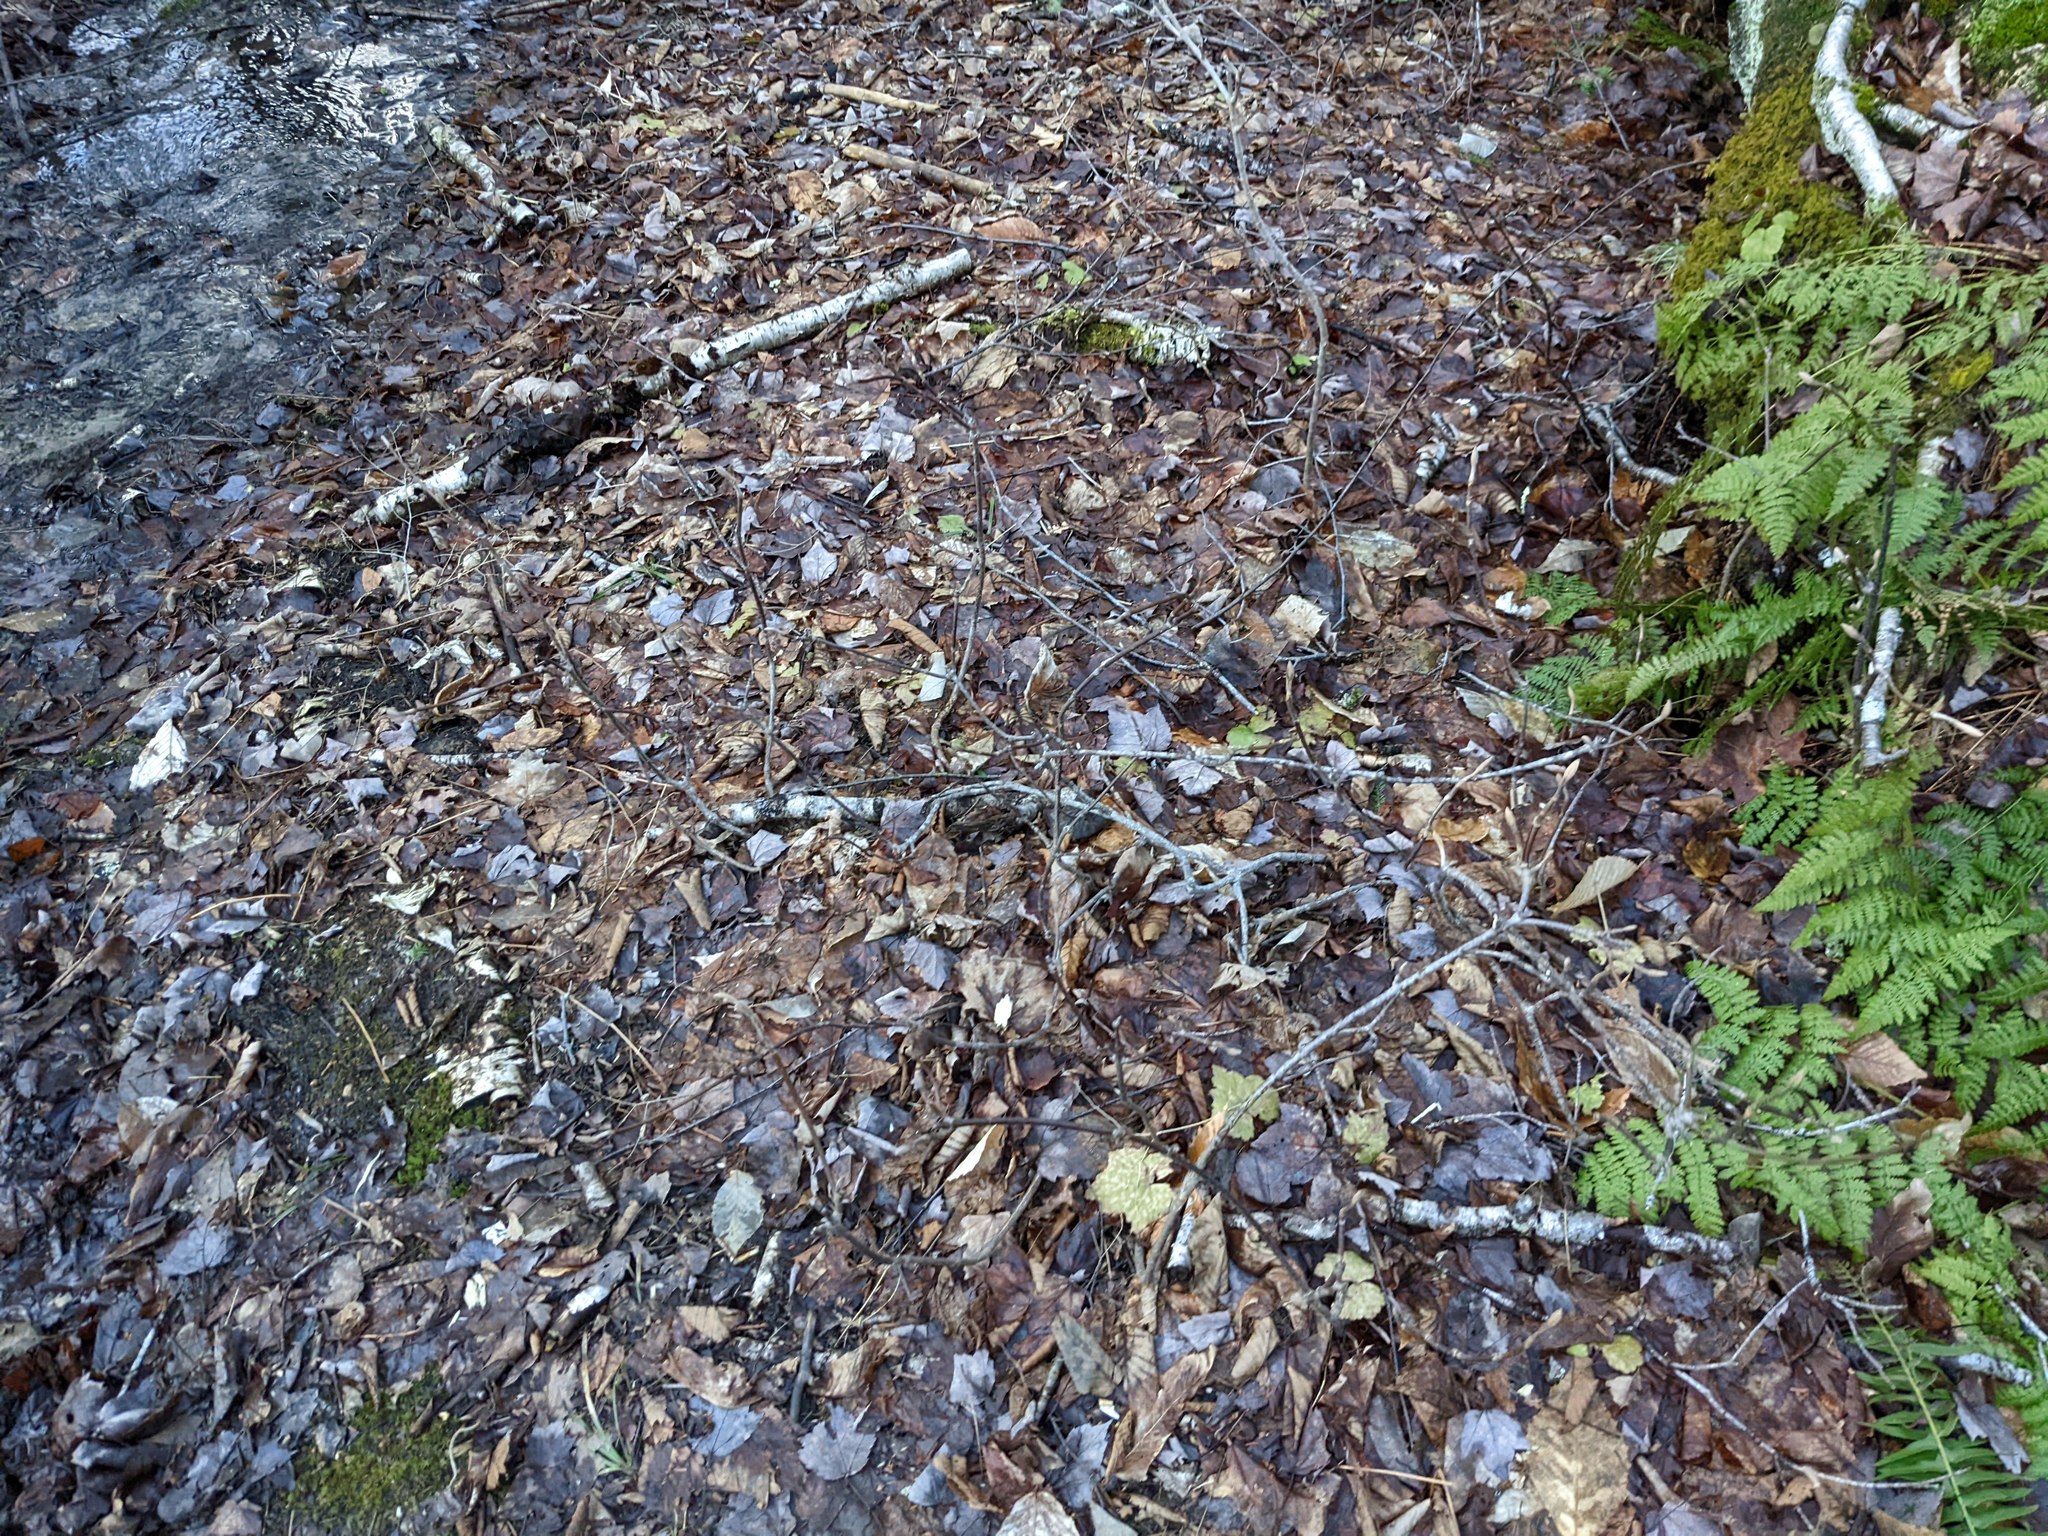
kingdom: Plantae
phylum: Tracheophyta
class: Magnoliopsida
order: Dipsacales
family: Viburnaceae
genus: Viburnum
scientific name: Viburnum lantanoides
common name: Hobblebush
